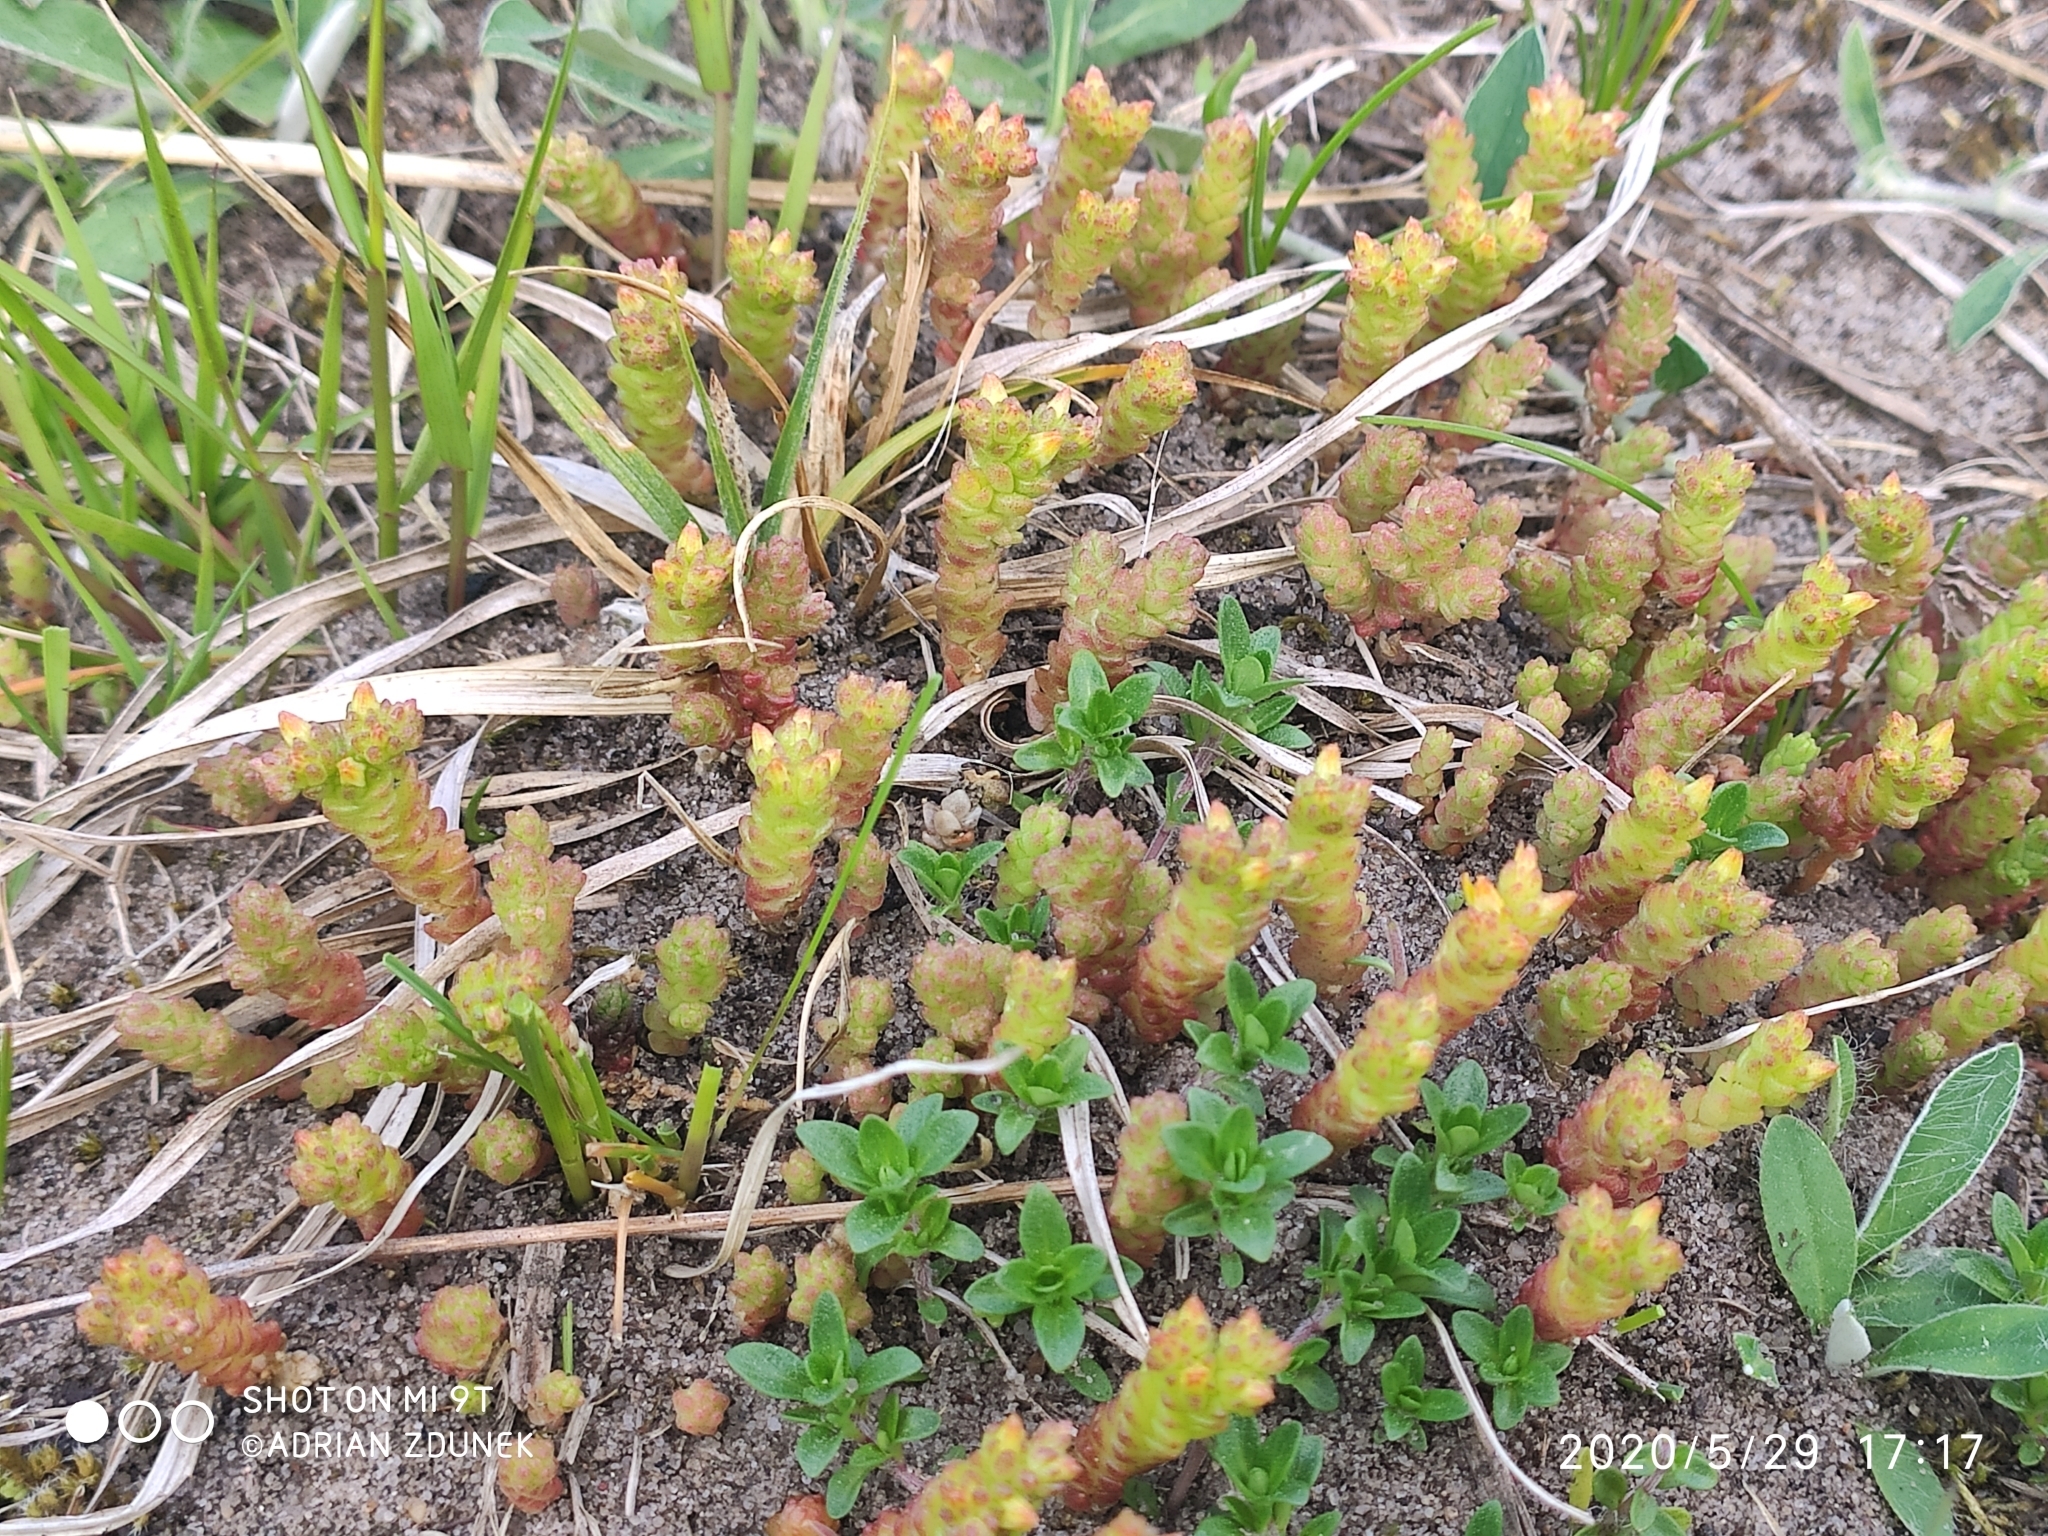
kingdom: Plantae
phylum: Tracheophyta
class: Magnoliopsida
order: Saxifragales
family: Crassulaceae
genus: Sedum
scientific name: Sedum acre
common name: Biting stonecrop
